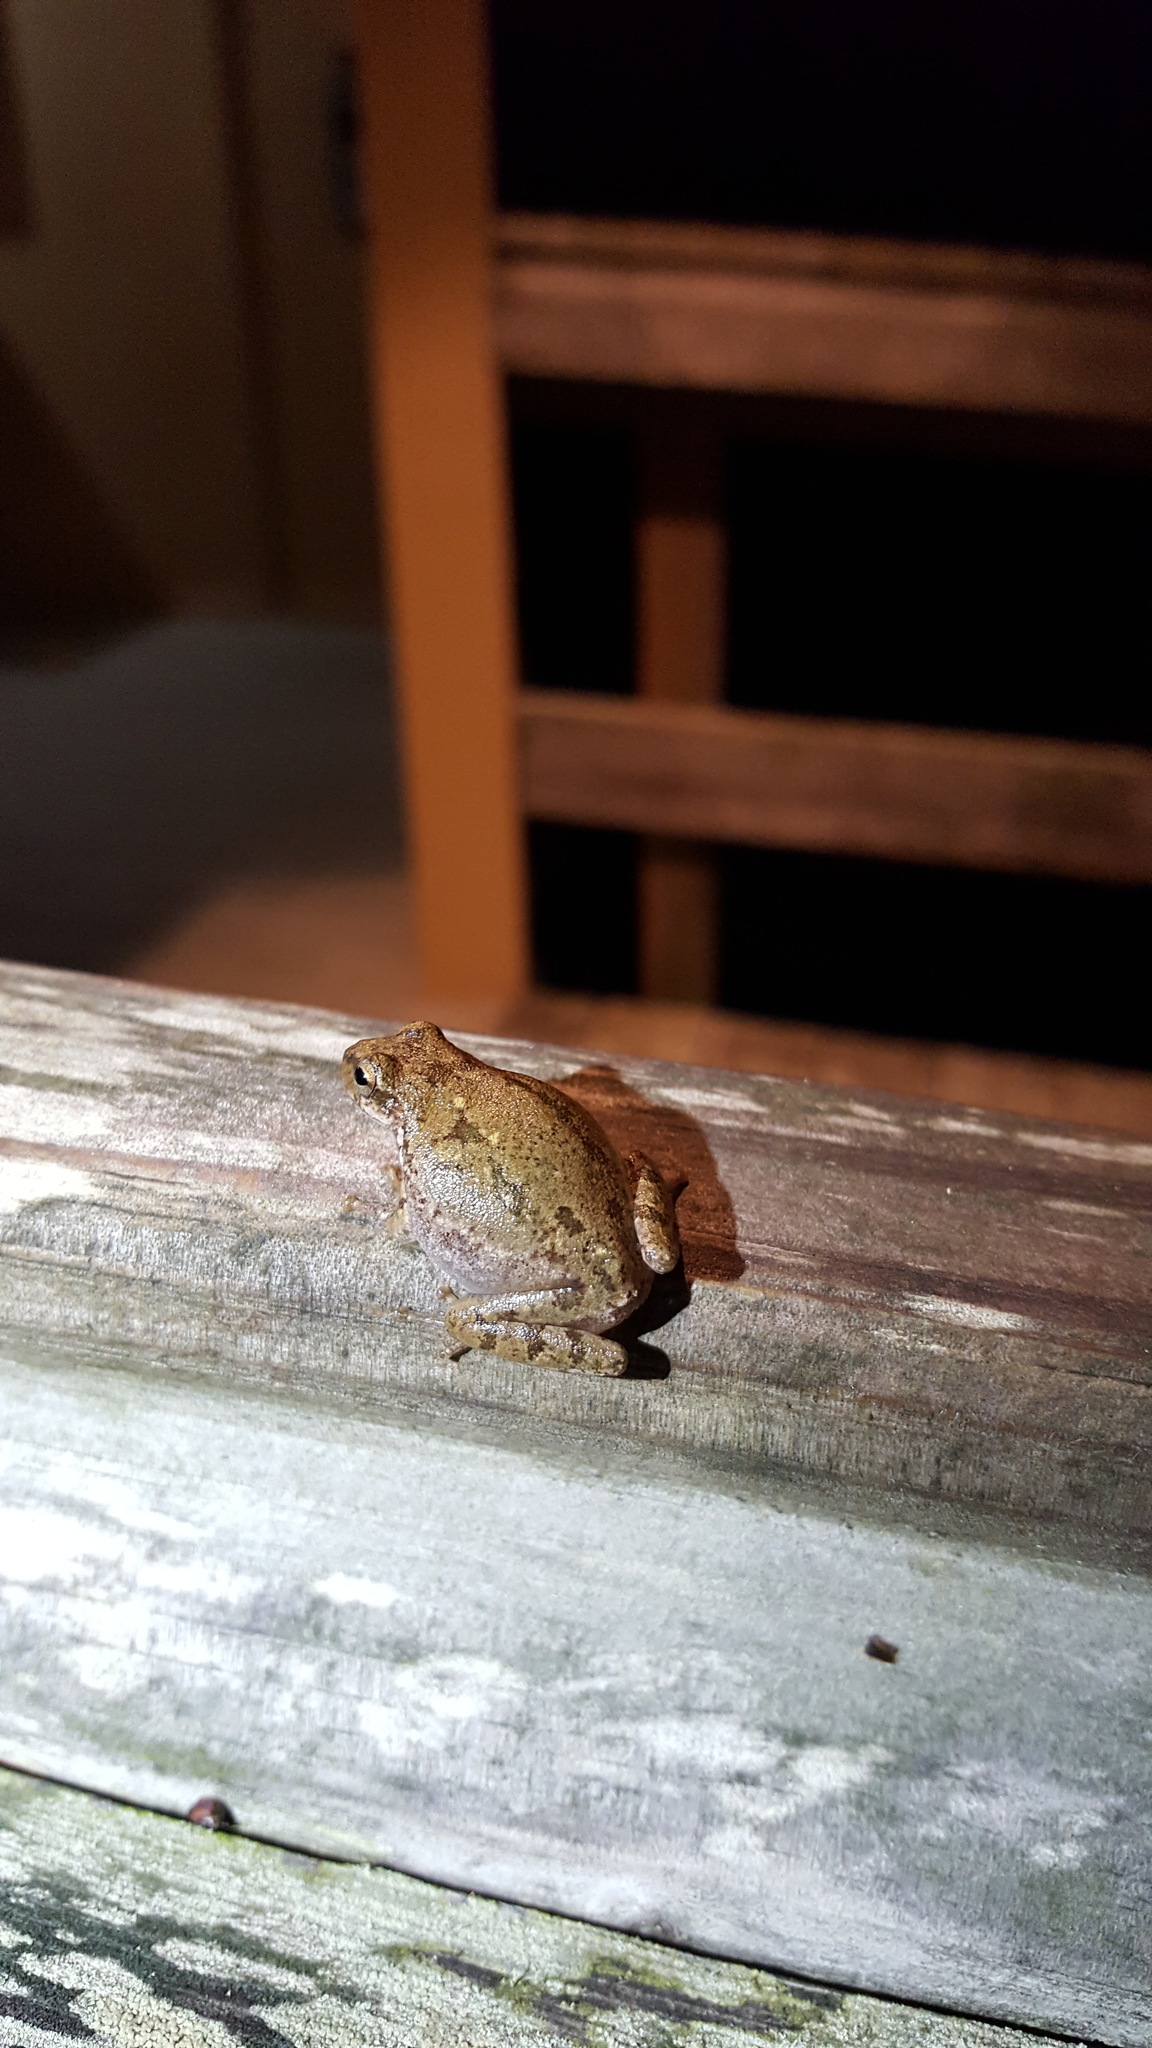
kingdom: Animalia
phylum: Chordata
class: Amphibia
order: Anura
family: Hylidae
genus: Dryophytes
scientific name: Dryophytes squirellus
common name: Squirrel treefrog
